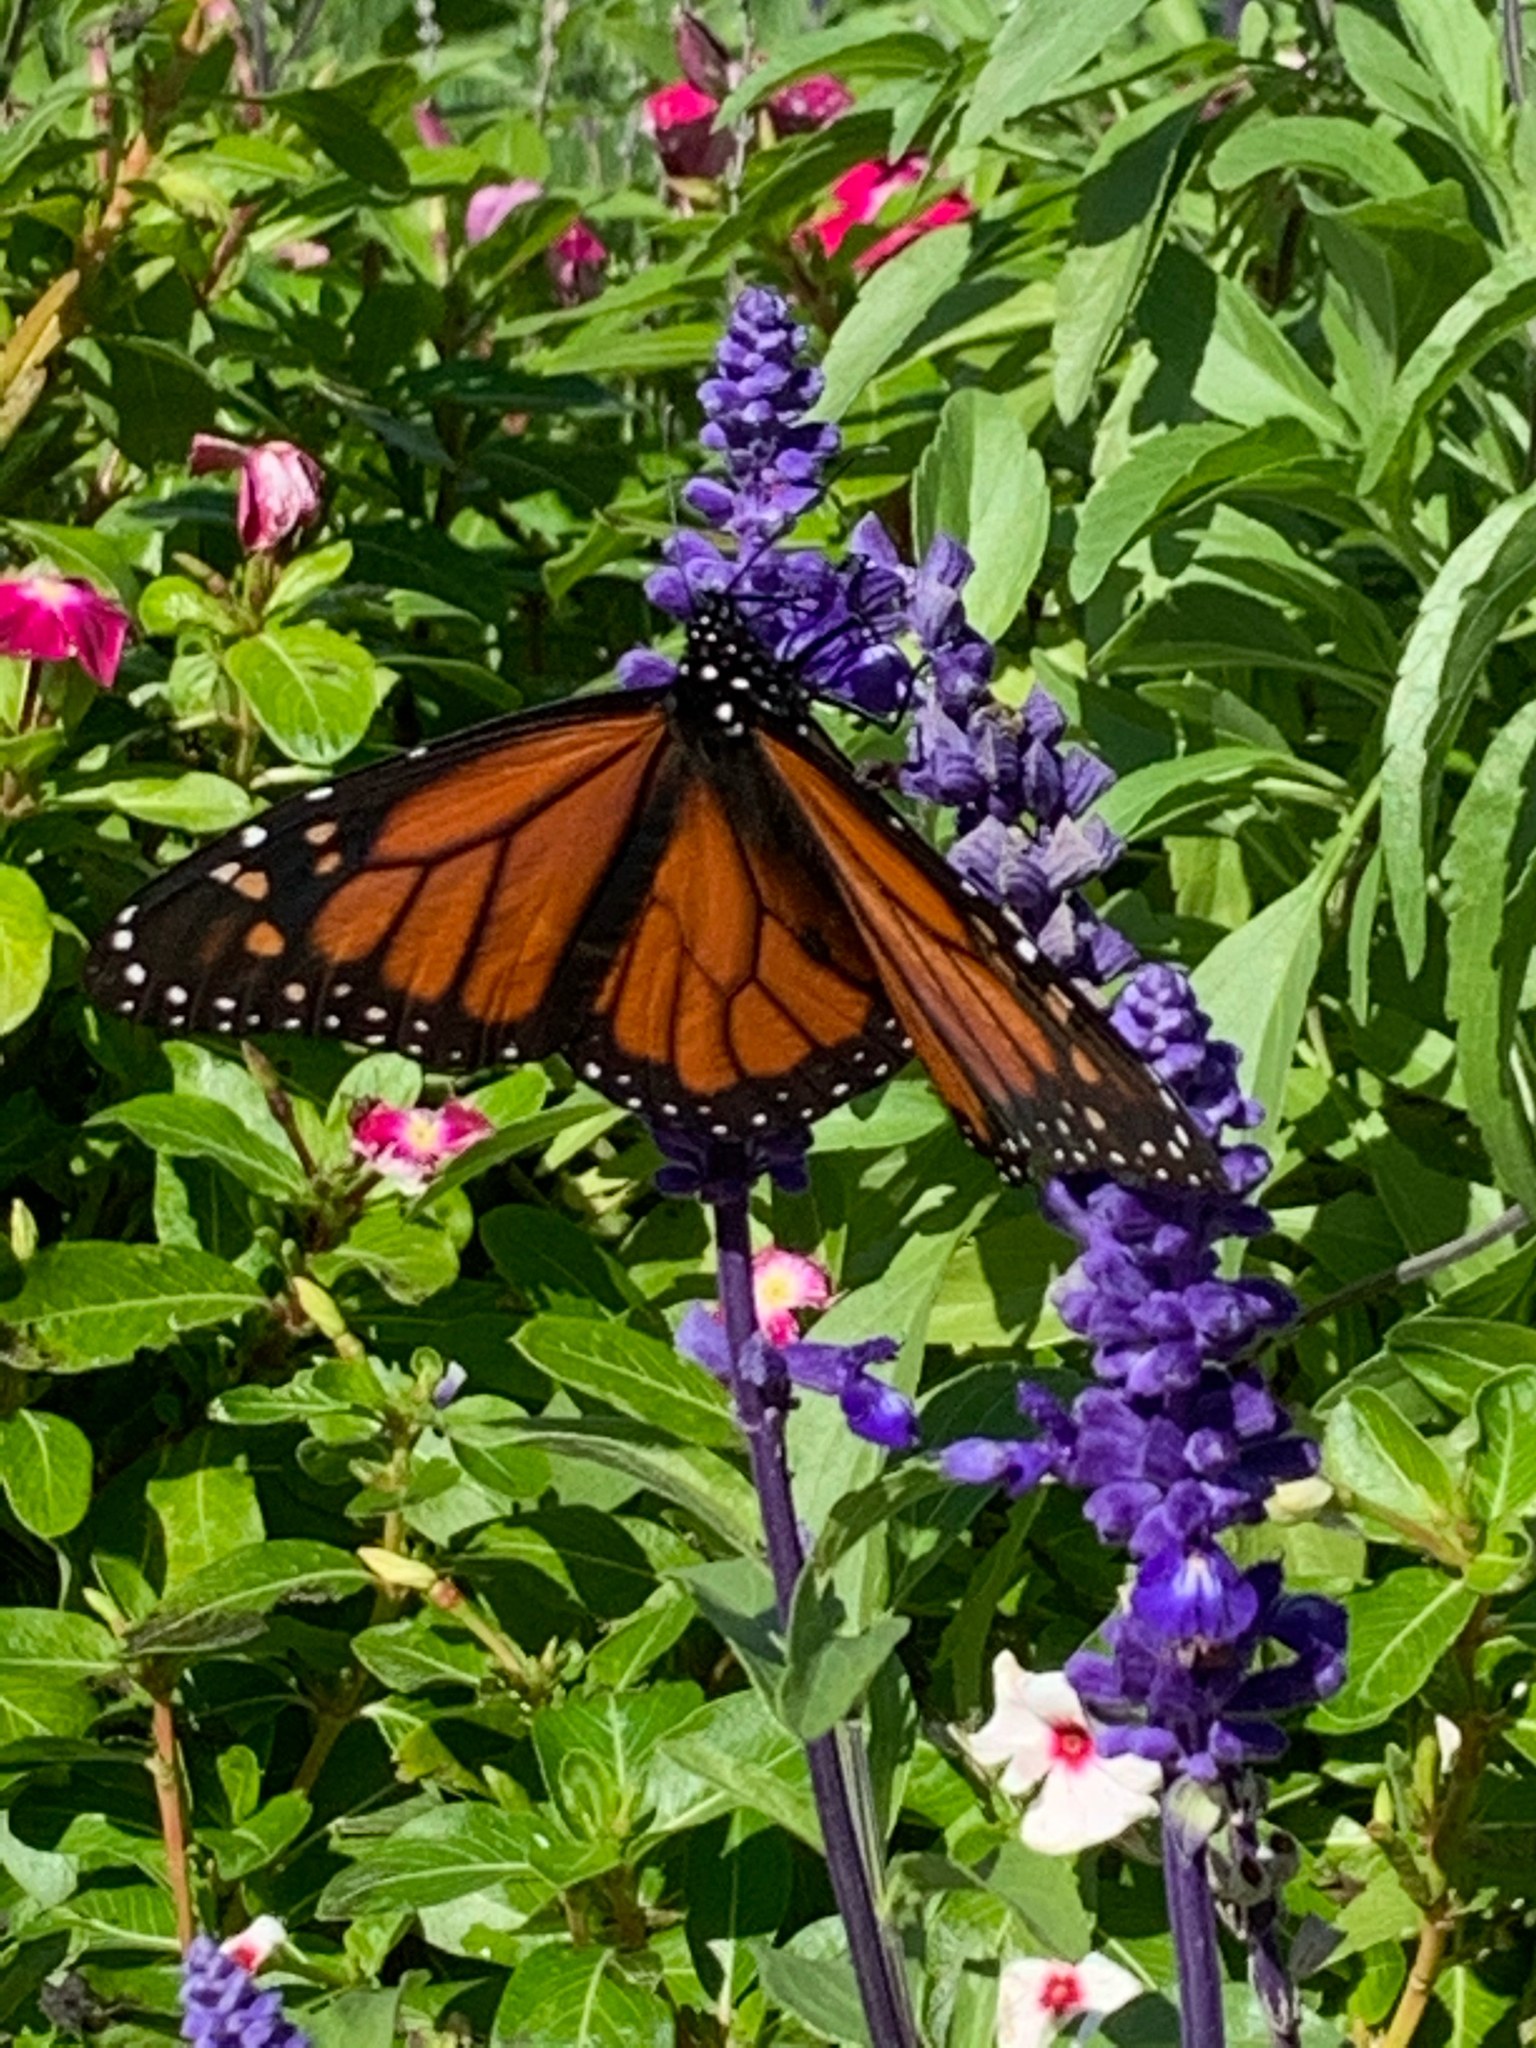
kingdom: Animalia
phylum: Arthropoda
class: Insecta
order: Lepidoptera
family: Nymphalidae
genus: Danaus
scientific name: Danaus plexippus
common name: Monarch
